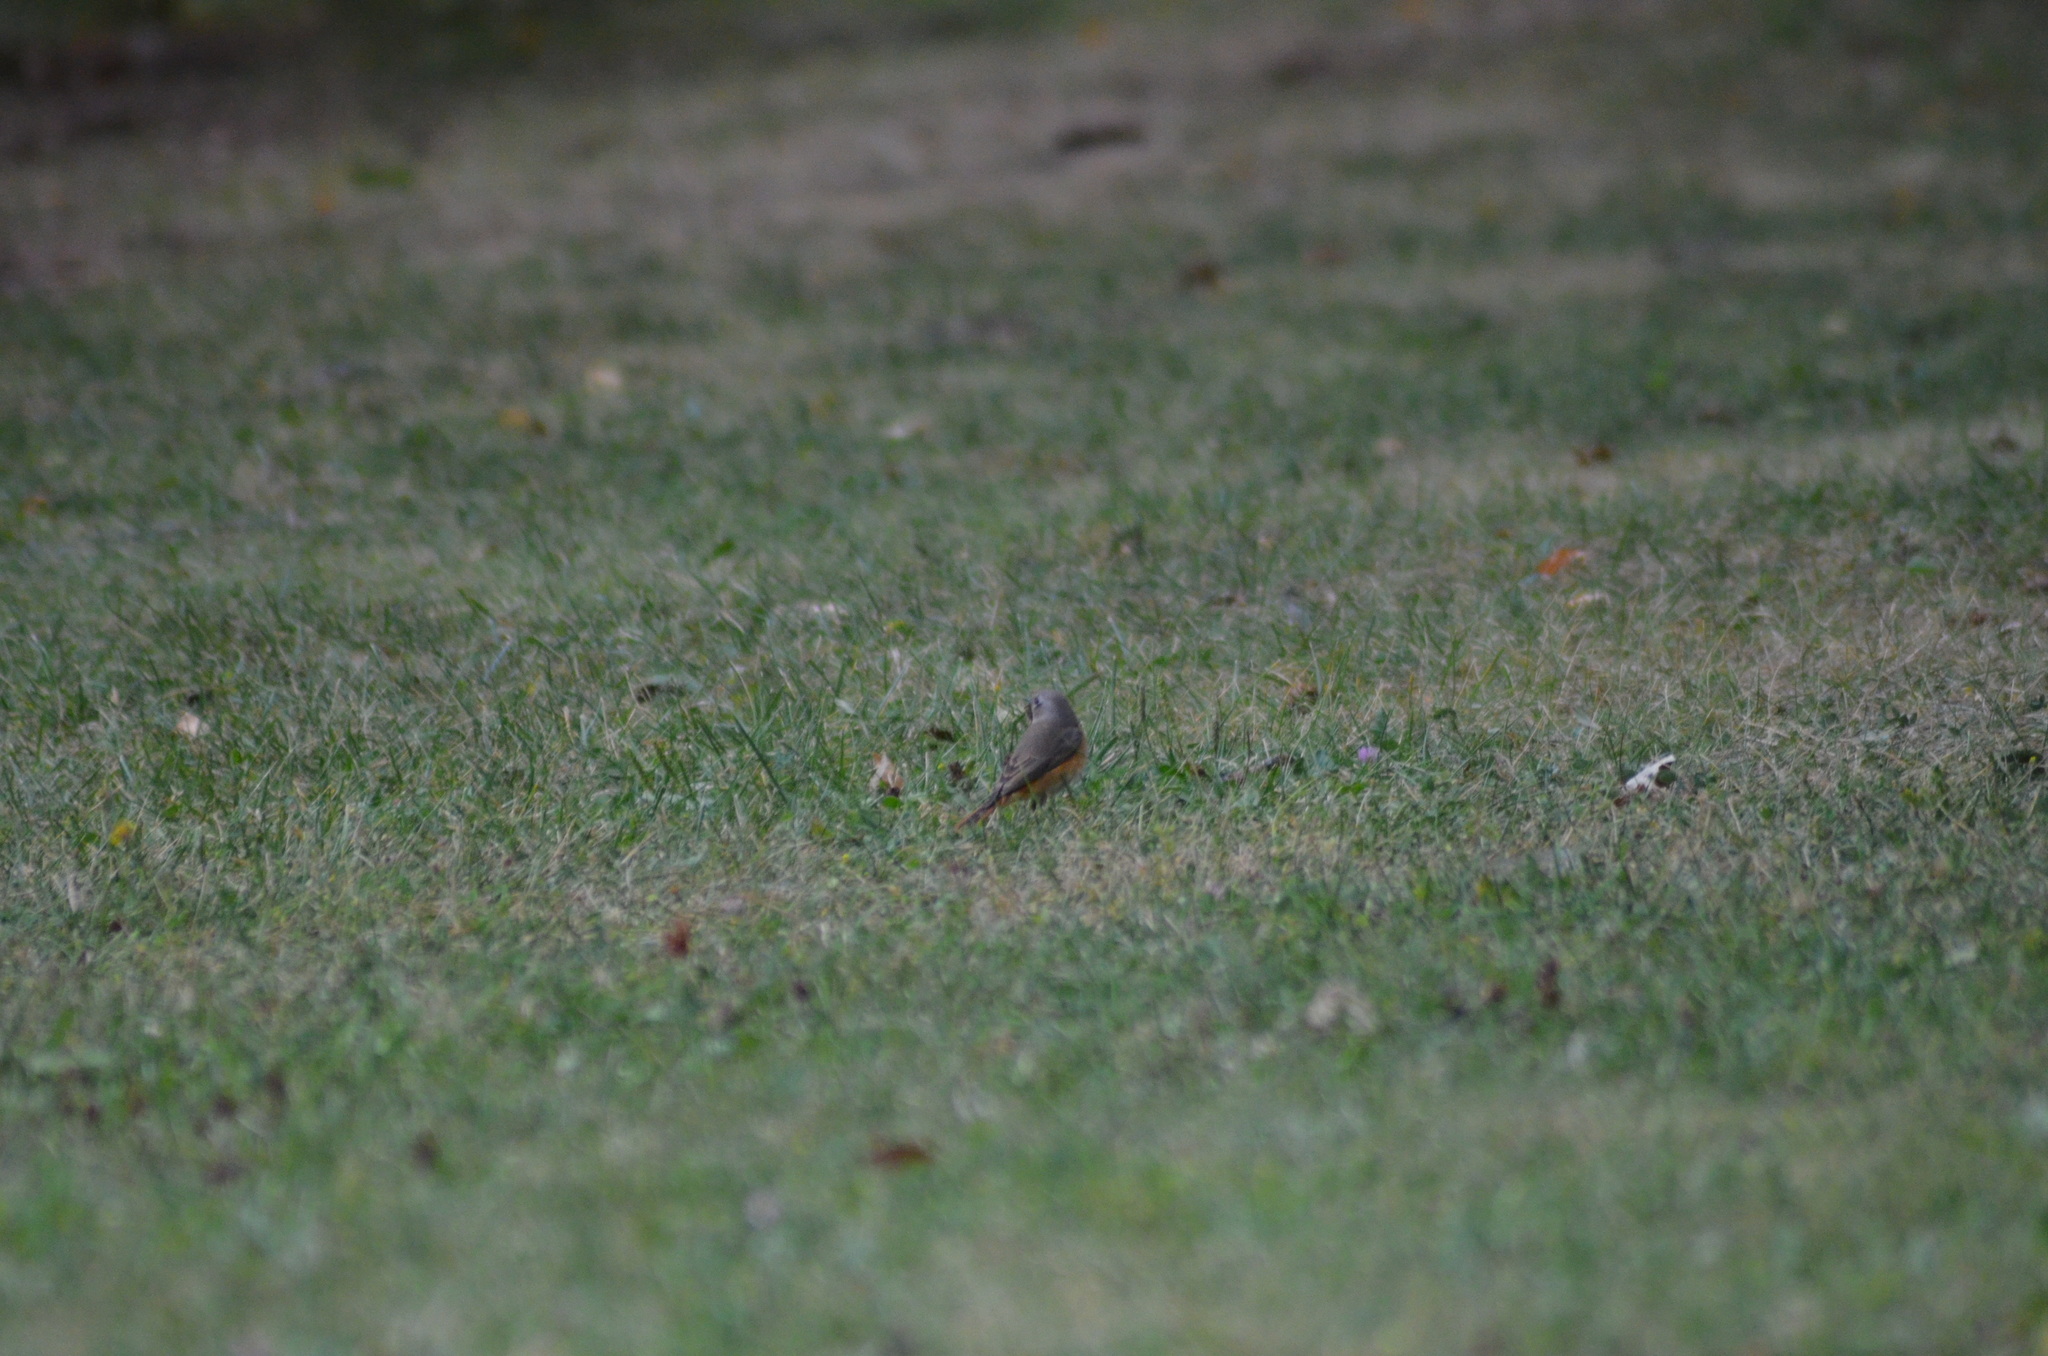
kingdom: Animalia
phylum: Chordata
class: Aves
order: Passeriformes
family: Muscicapidae
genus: Phoenicurus
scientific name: Phoenicurus phoenicurus
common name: Common redstart
